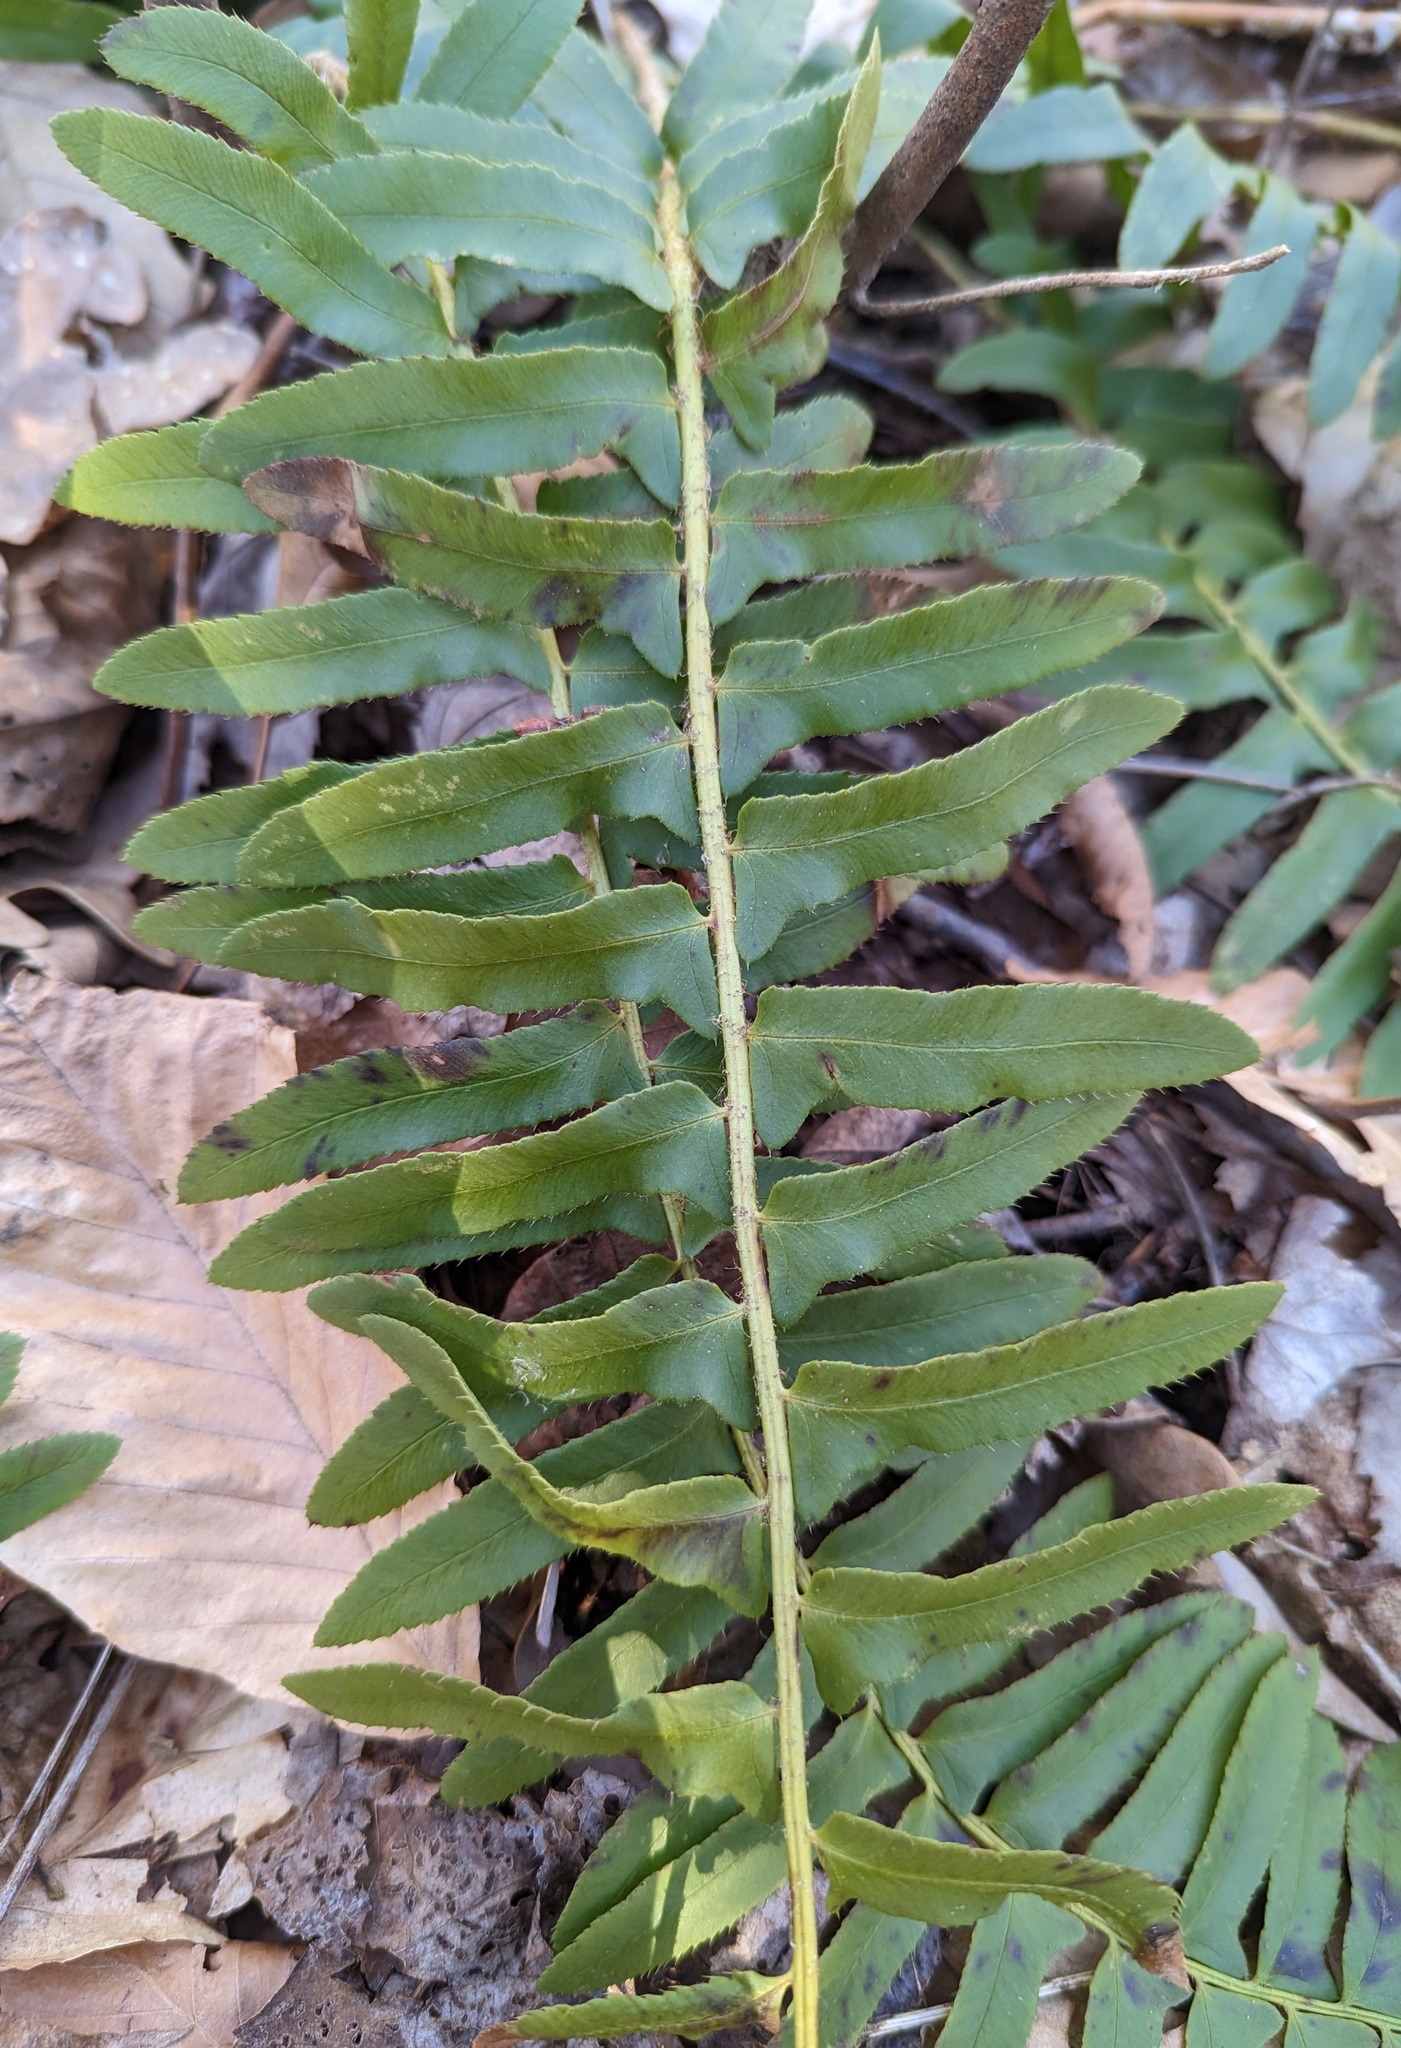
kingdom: Plantae
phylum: Tracheophyta
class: Polypodiopsida
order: Polypodiales
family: Dryopteridaceae
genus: Polystichum
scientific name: Polystichum acrostichoides
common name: Christmas fern
